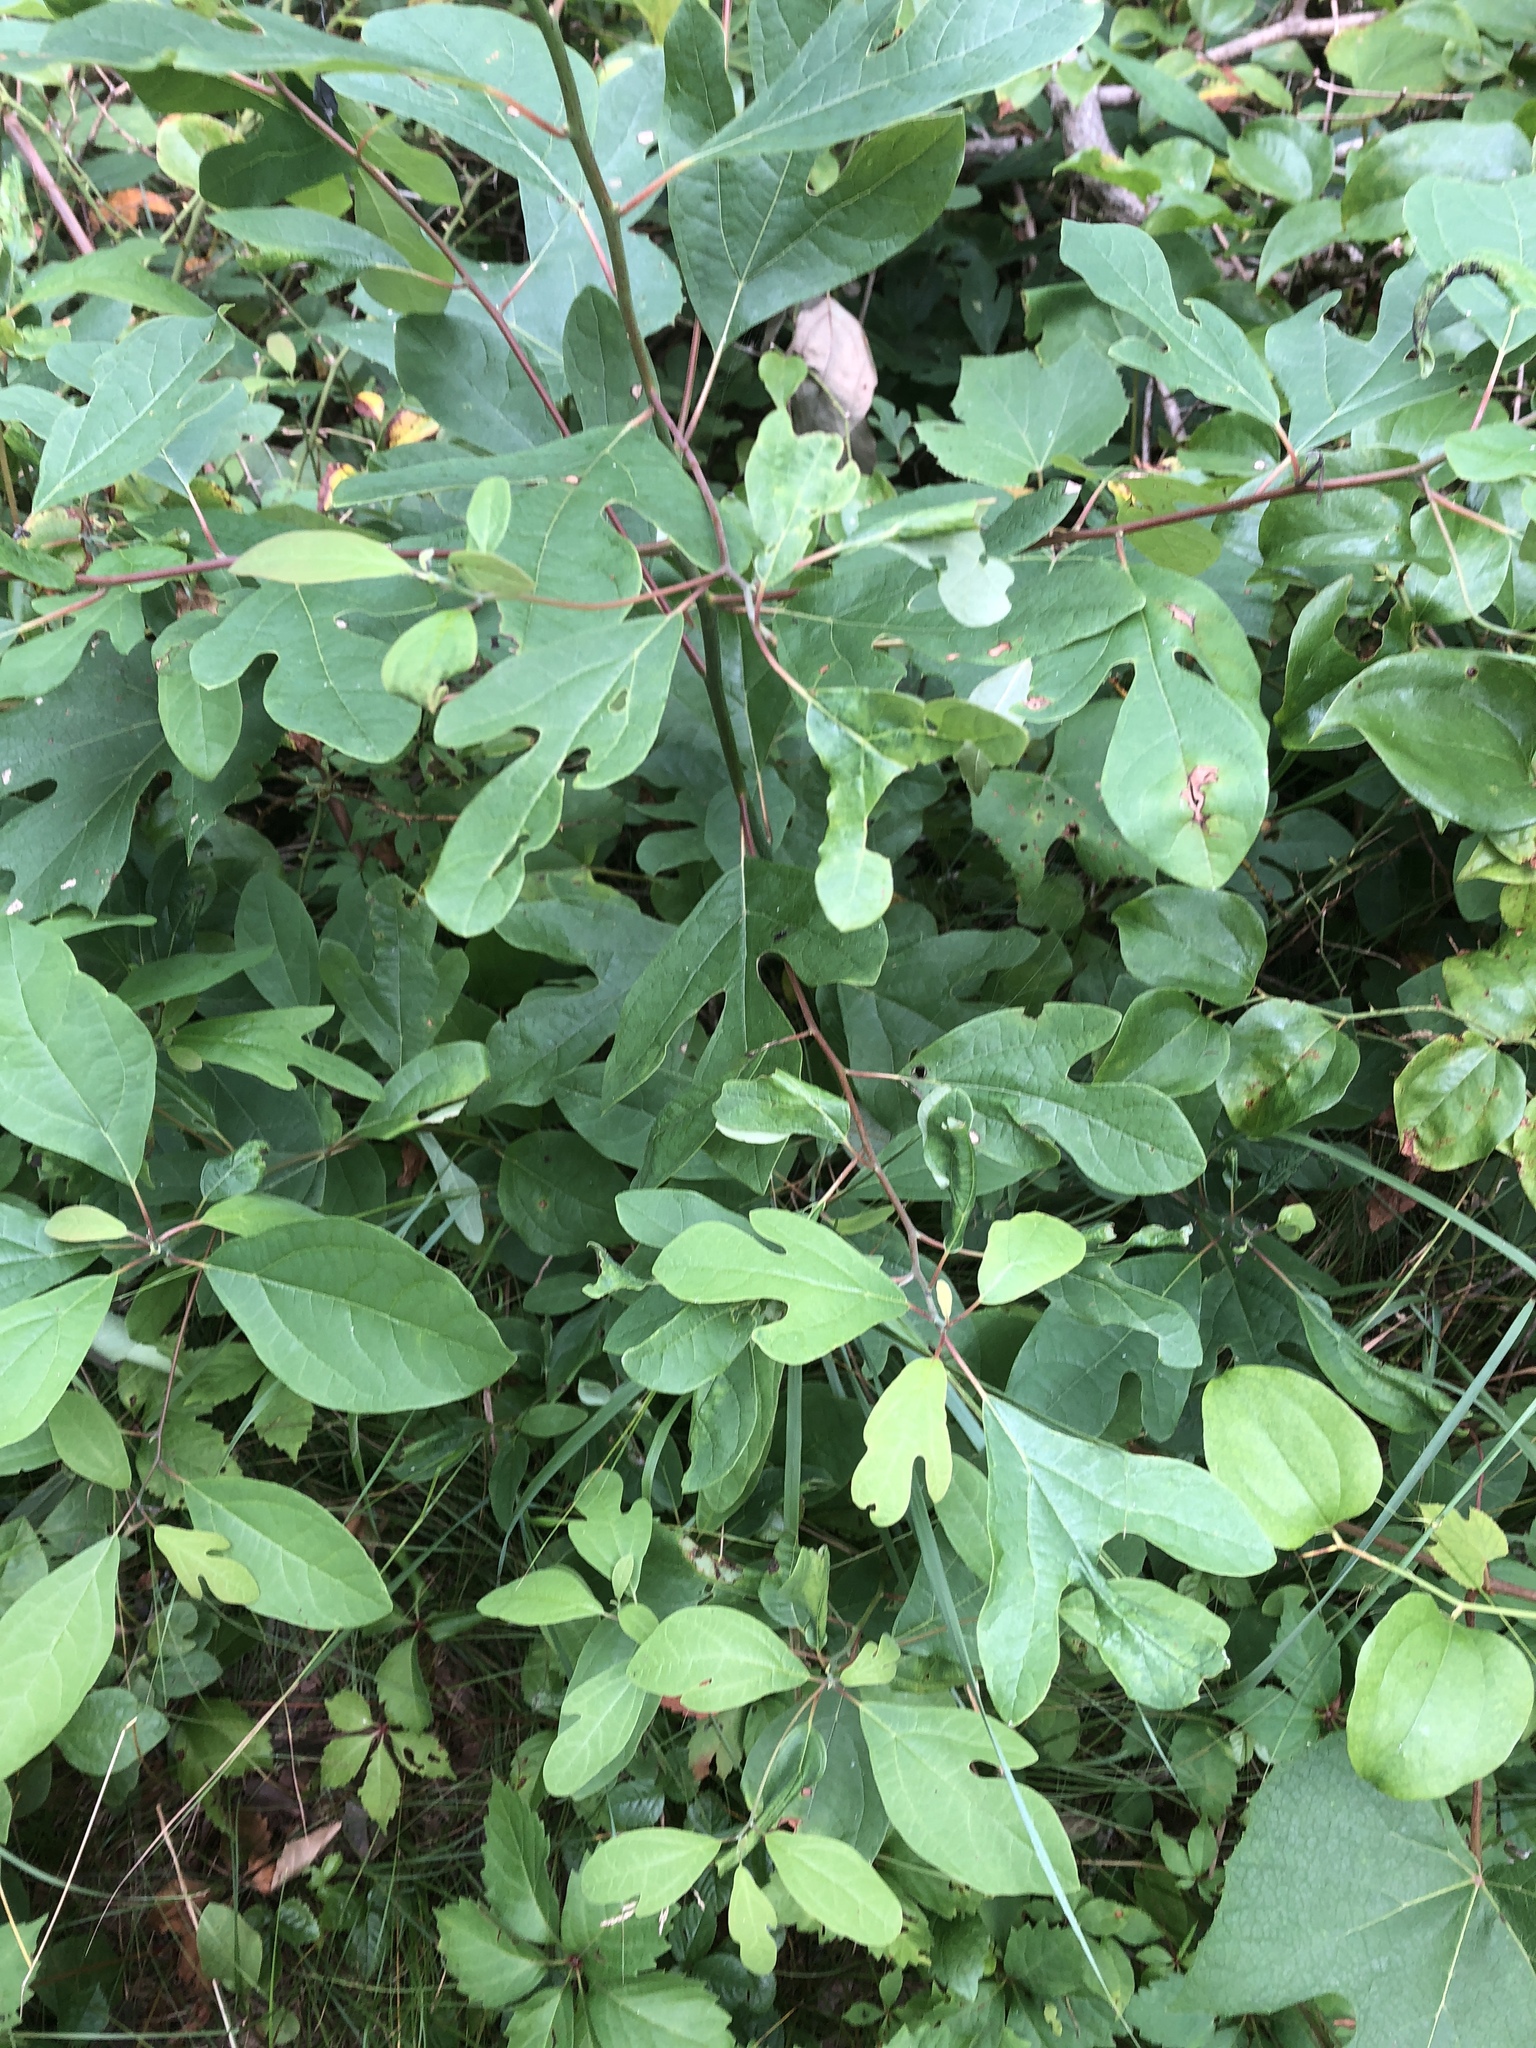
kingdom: Plantae
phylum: Tracheophyta
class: Magnoliopsida
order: Laurales
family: Lauraceae
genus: Sassafras
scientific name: Sassafras albidum
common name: Sassafras
